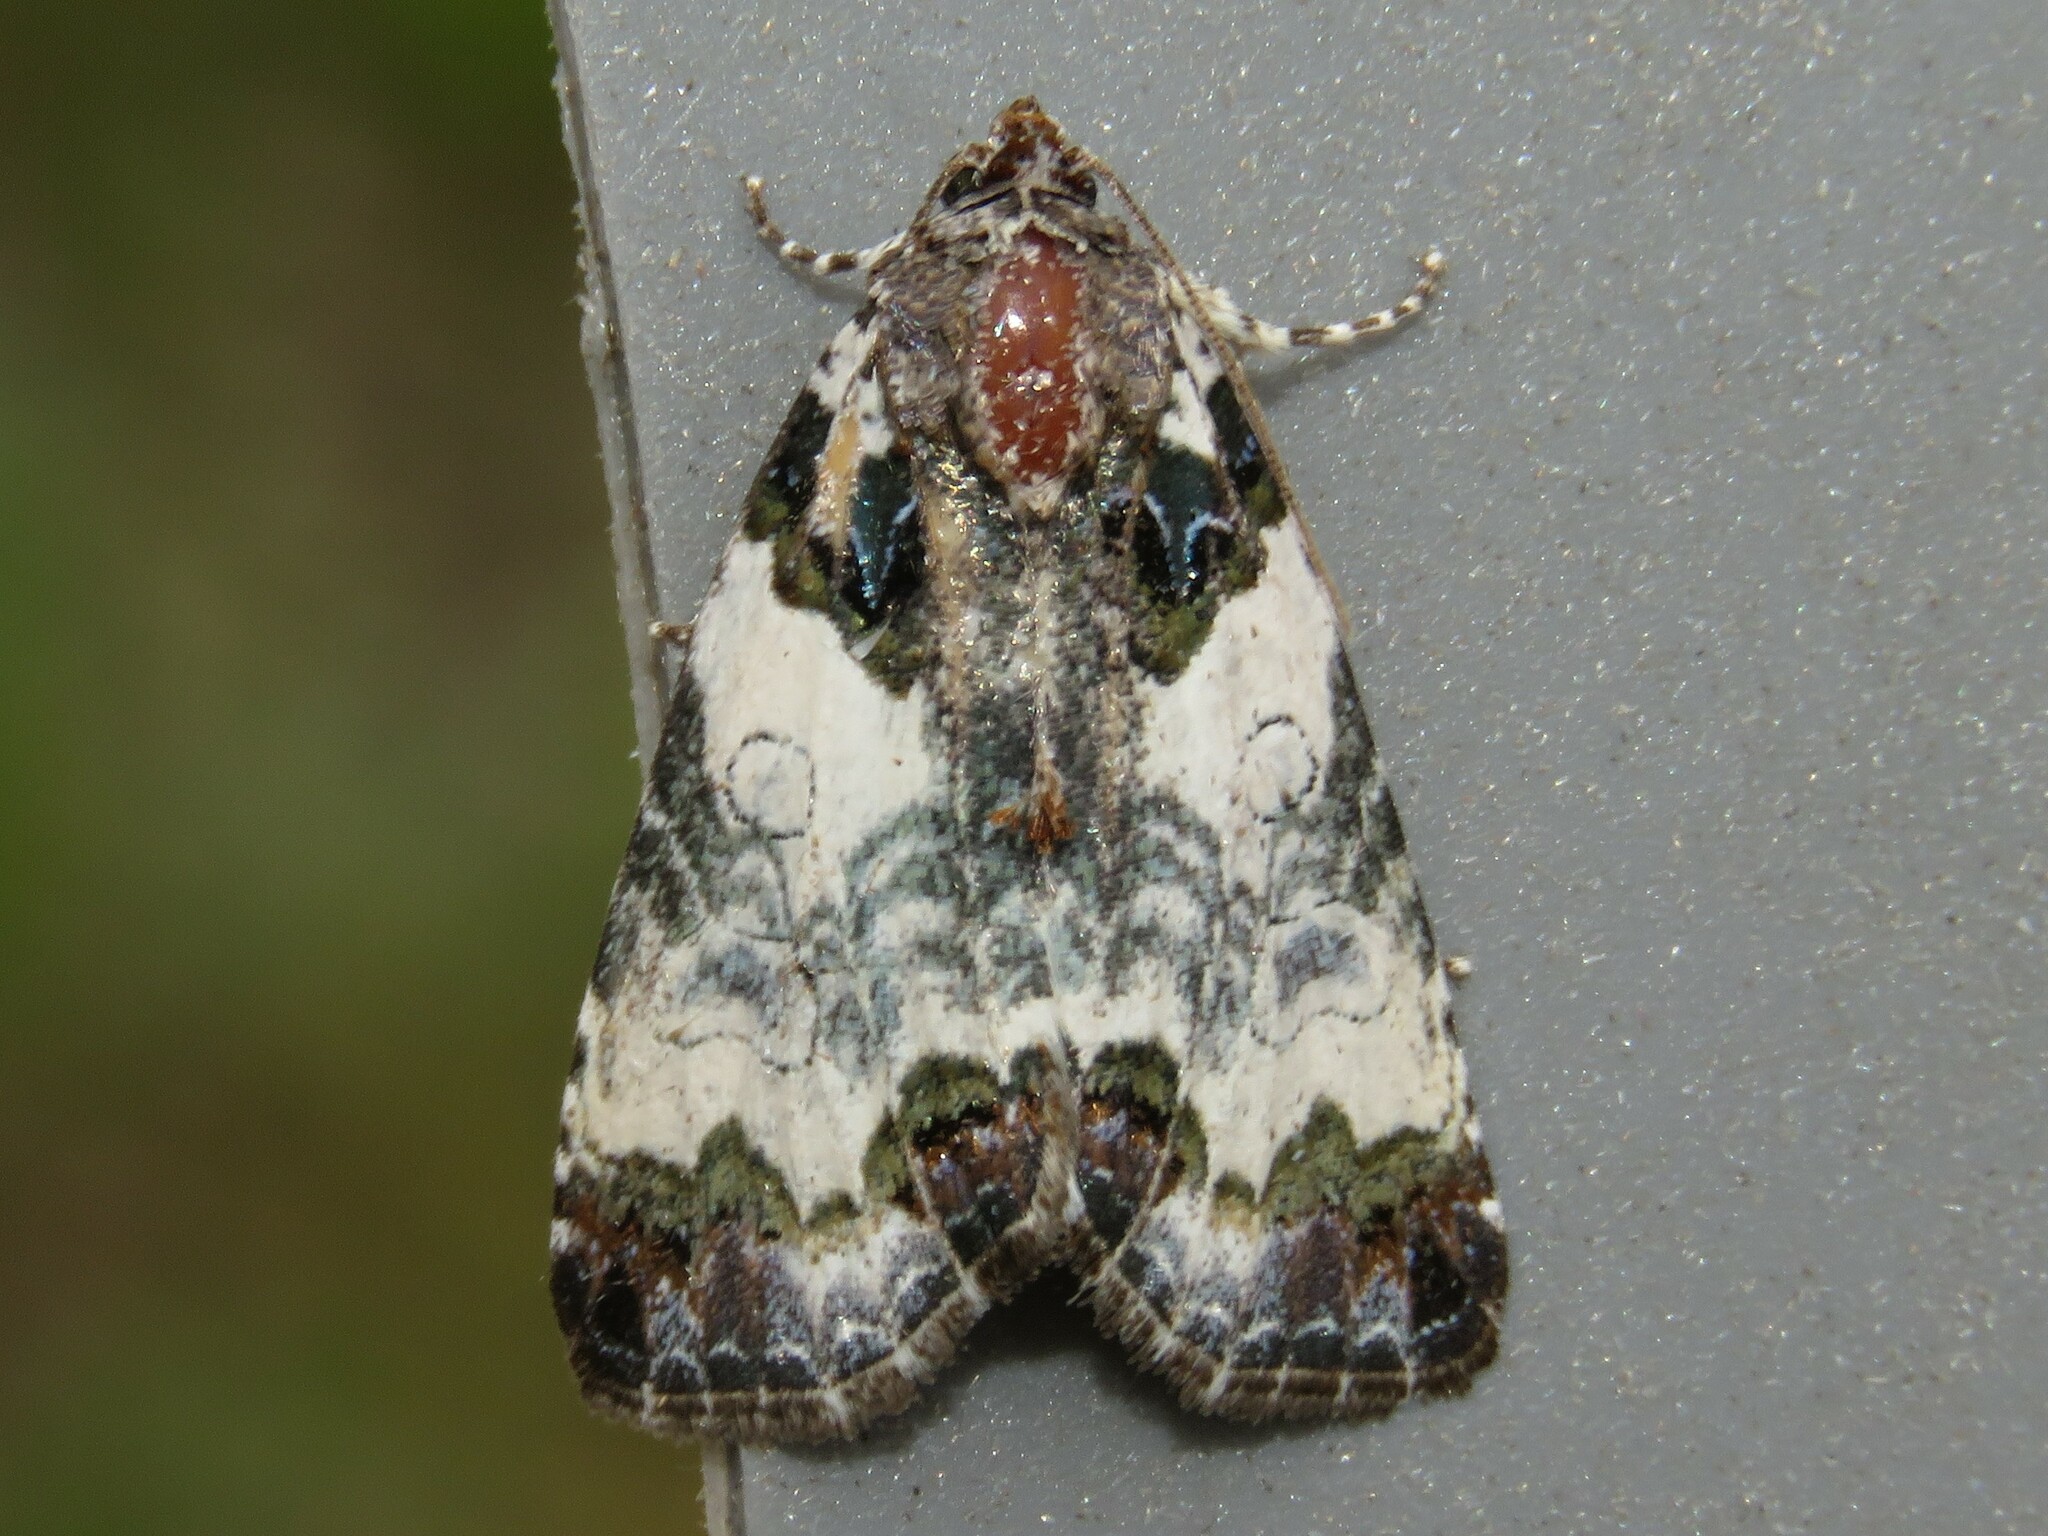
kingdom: Animalia
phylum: Arthropoda
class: Insecta
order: Lepidoptera
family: Noctuidae
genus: Cerma
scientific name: Cerma cerintha
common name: Tufted bird-dropping moth
